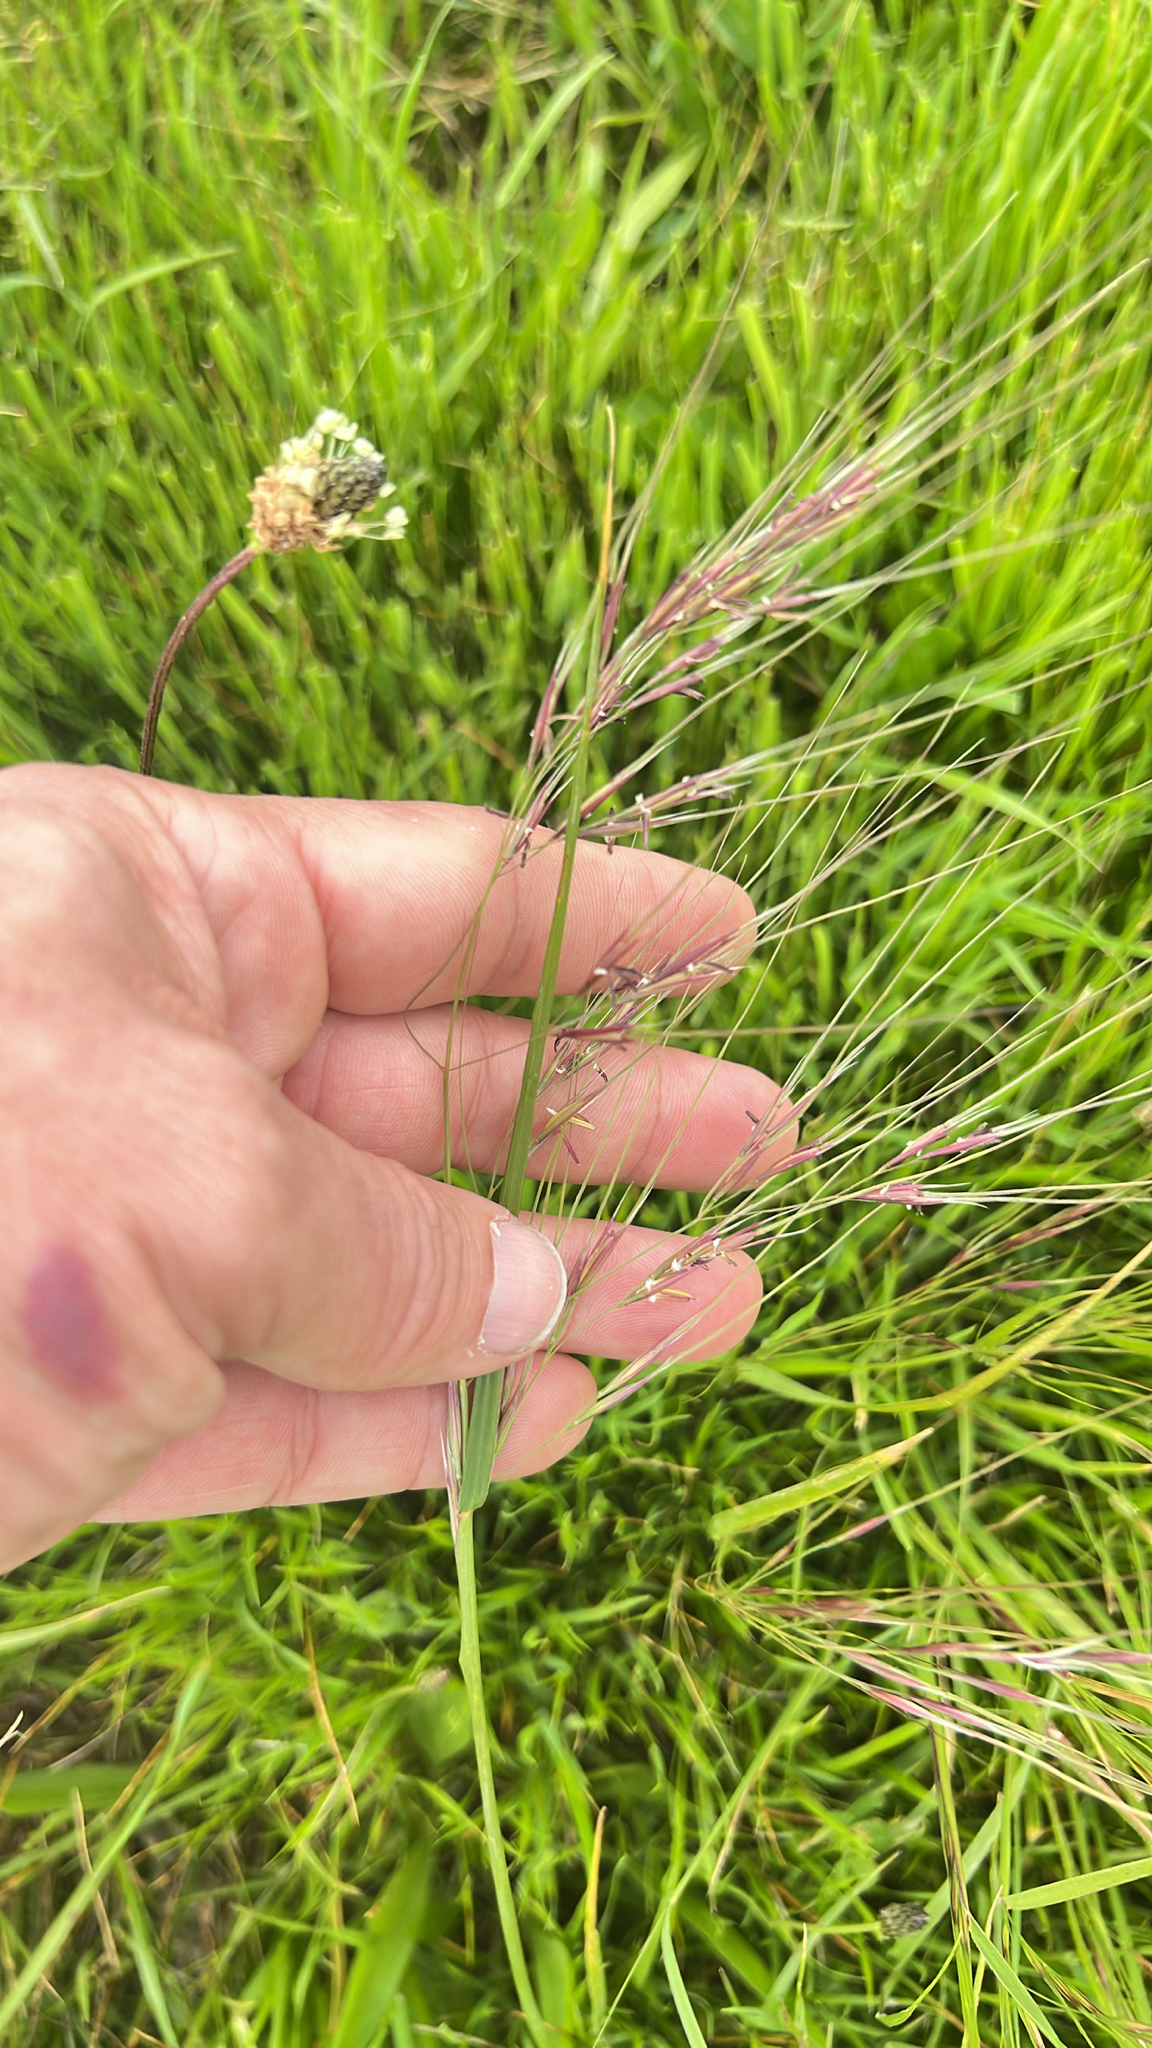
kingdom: Plantae
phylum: Tracheophyta
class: Liliopsida
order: Poales
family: Poaceae
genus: Nassella
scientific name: Nassella pulchra
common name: Purple needlegrass
